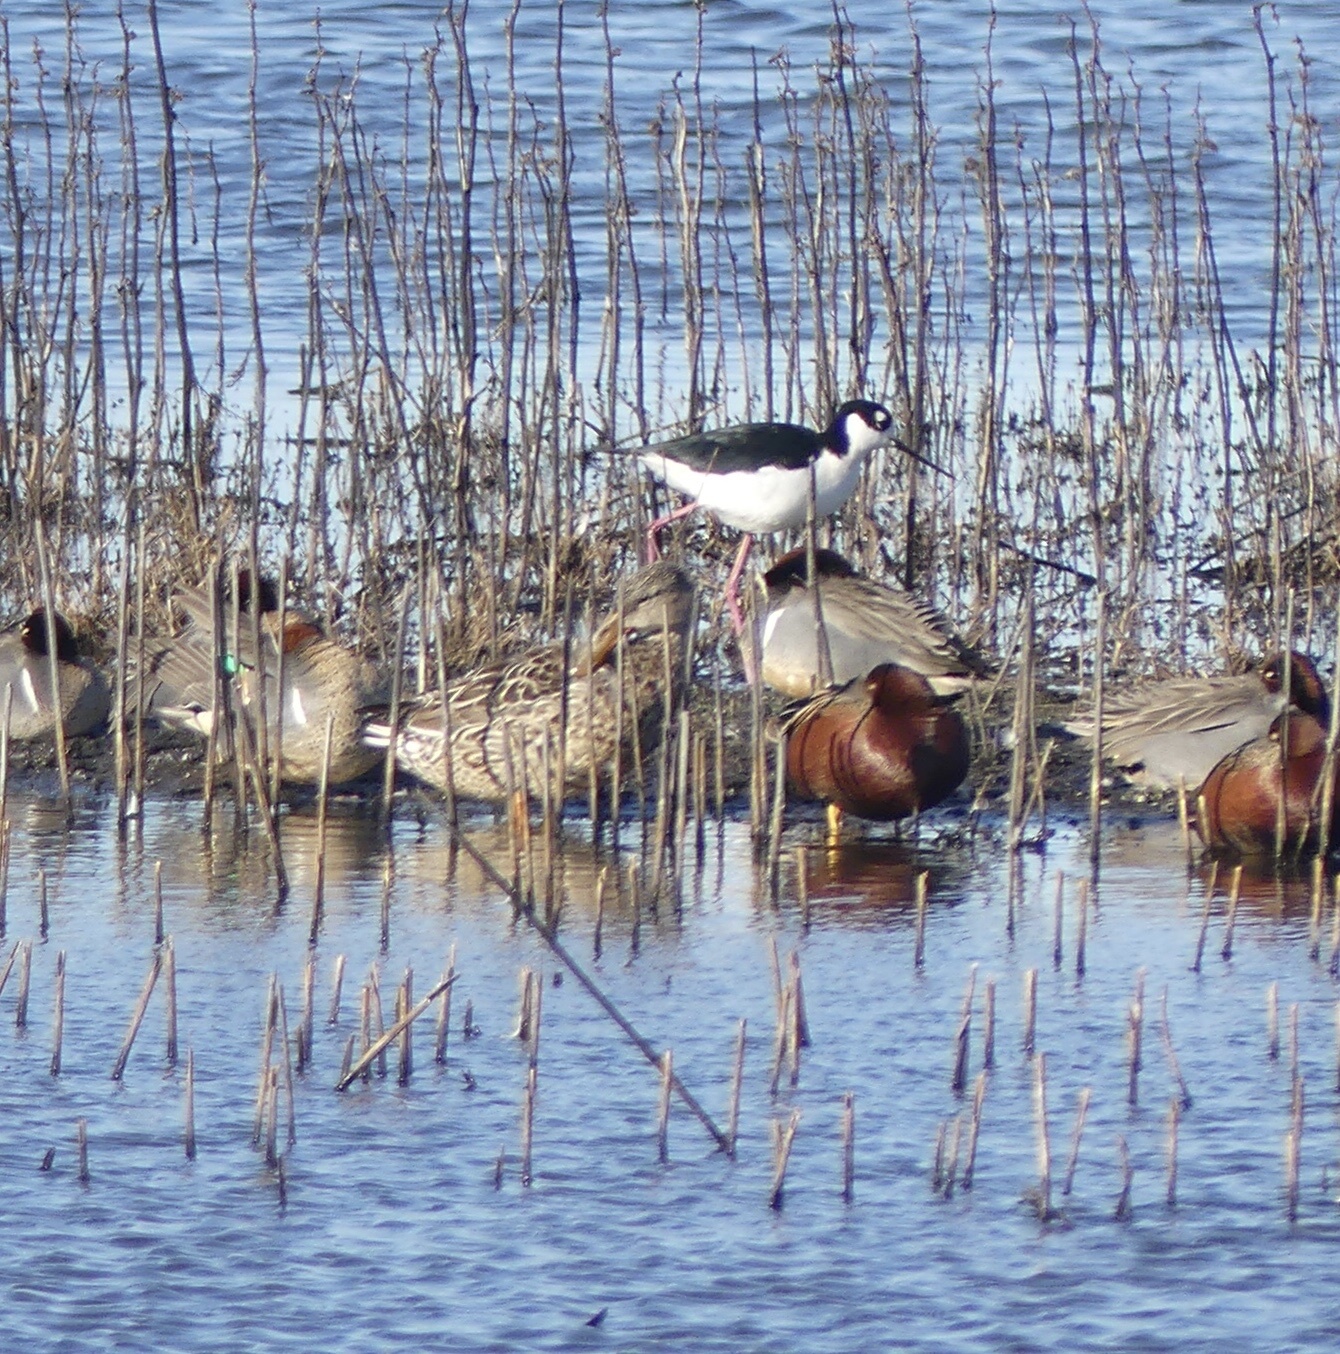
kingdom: Animalia
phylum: Chordata
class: Aves
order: Anseriformes
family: Anatidae
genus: Spatula
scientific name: Spatula cyanoptera
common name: Cinnamon teal
